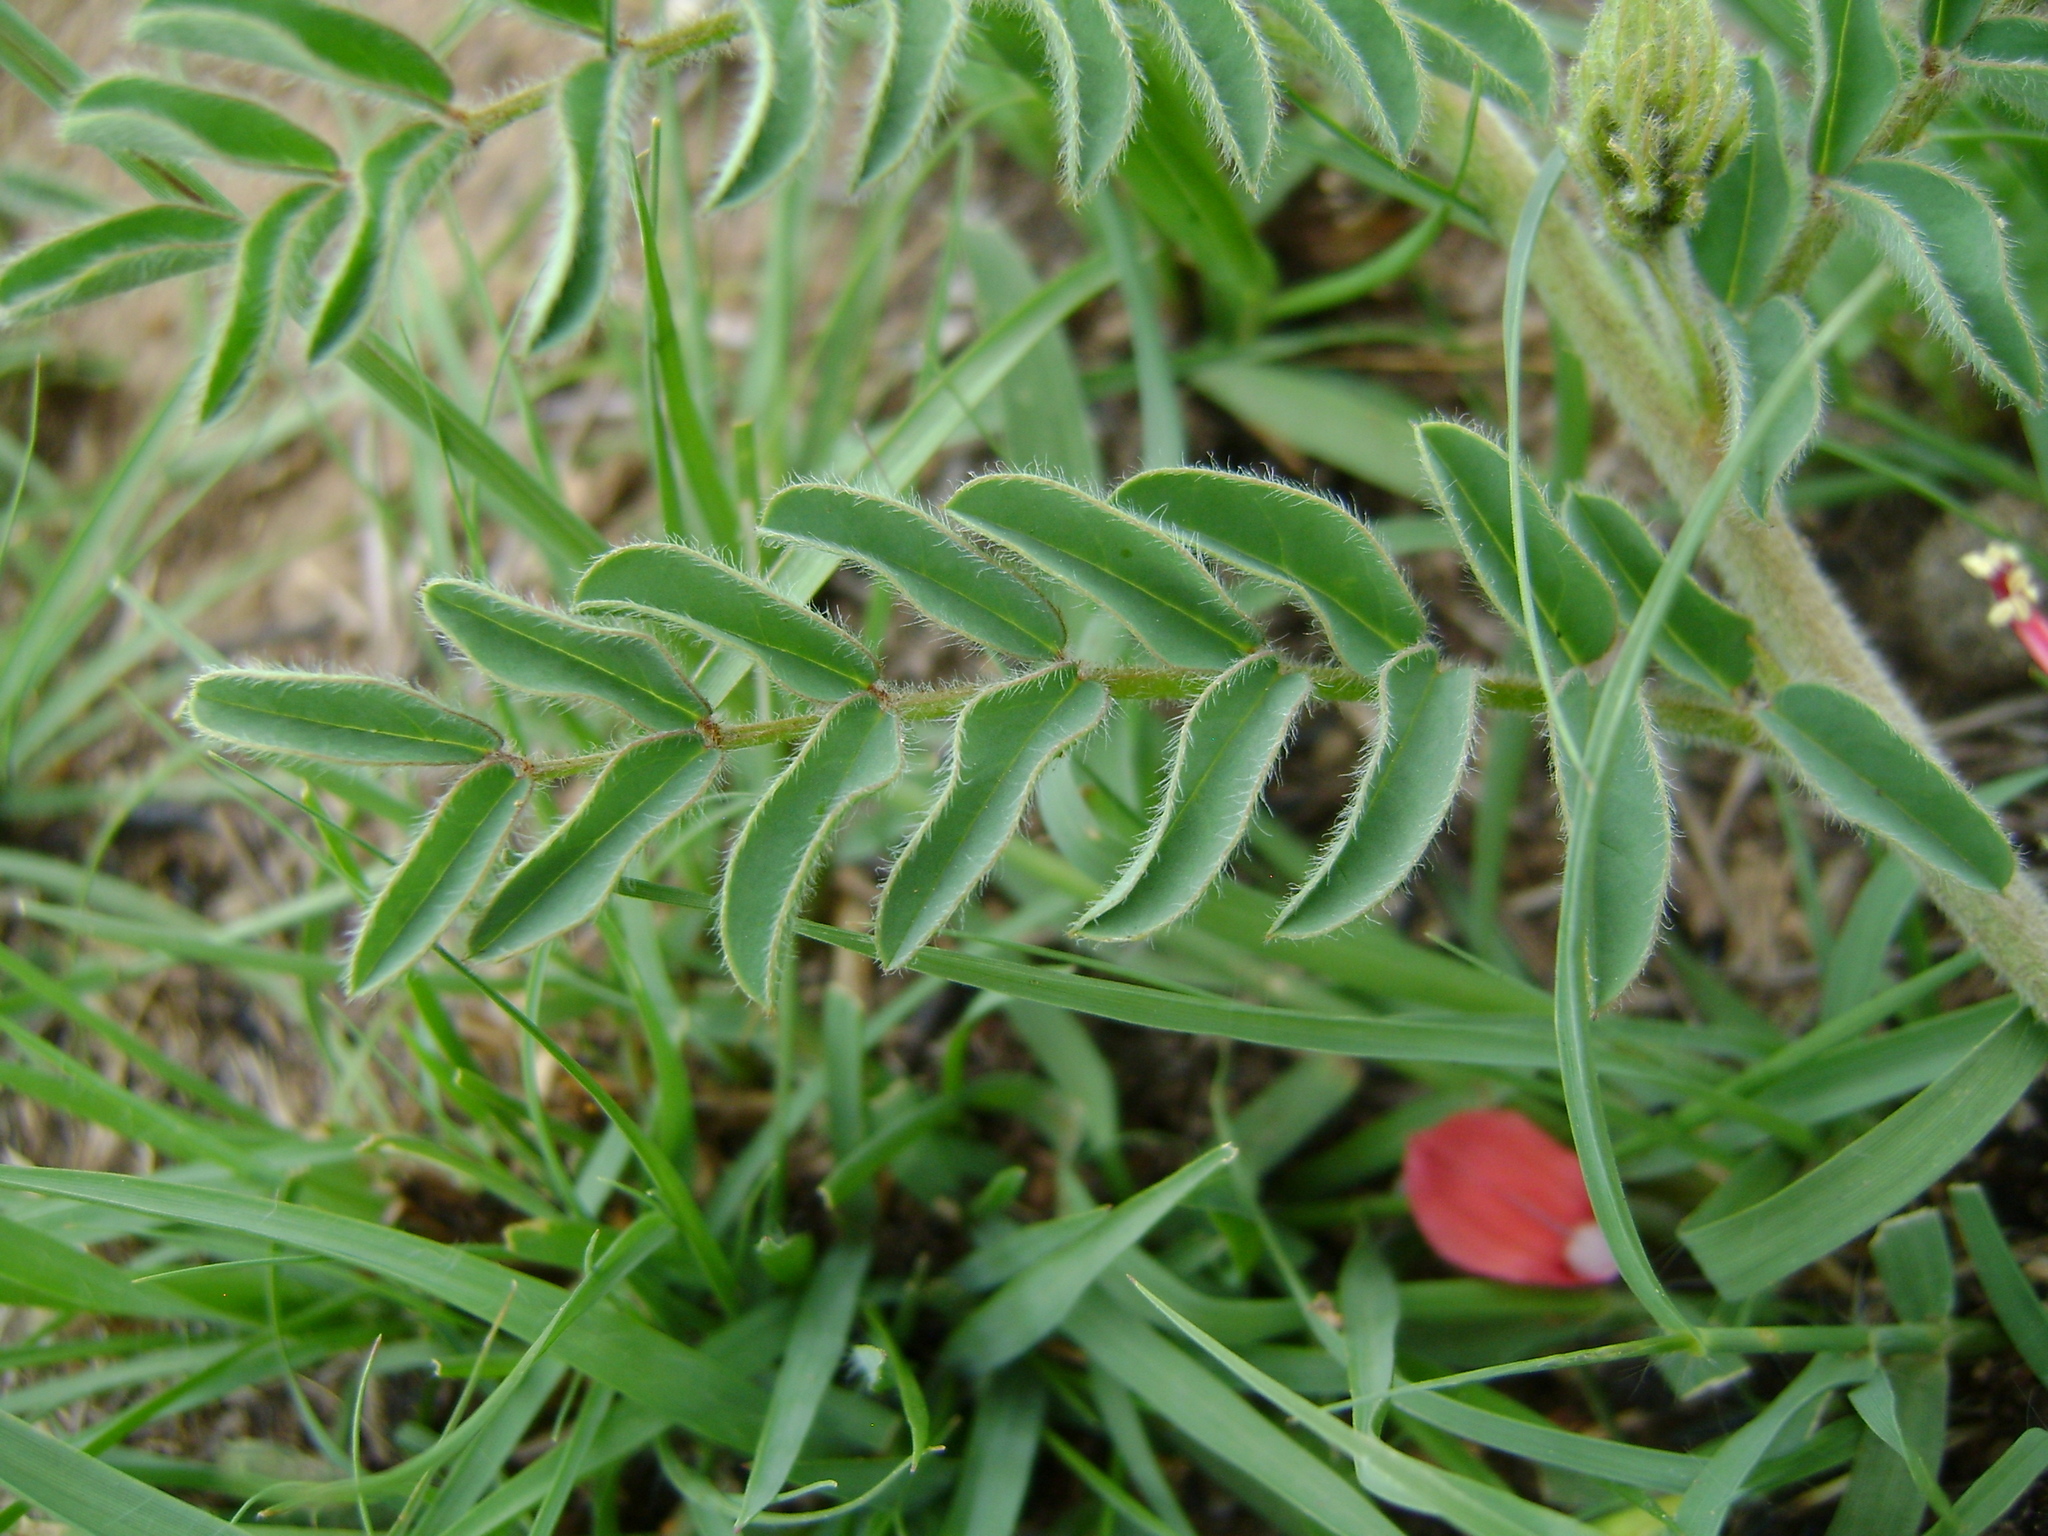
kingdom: Plantae
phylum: Tracheophyta
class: Magnoliopsida
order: Fabales
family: Fabaceae
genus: Indigofera
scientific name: Indigofera sanguinea
